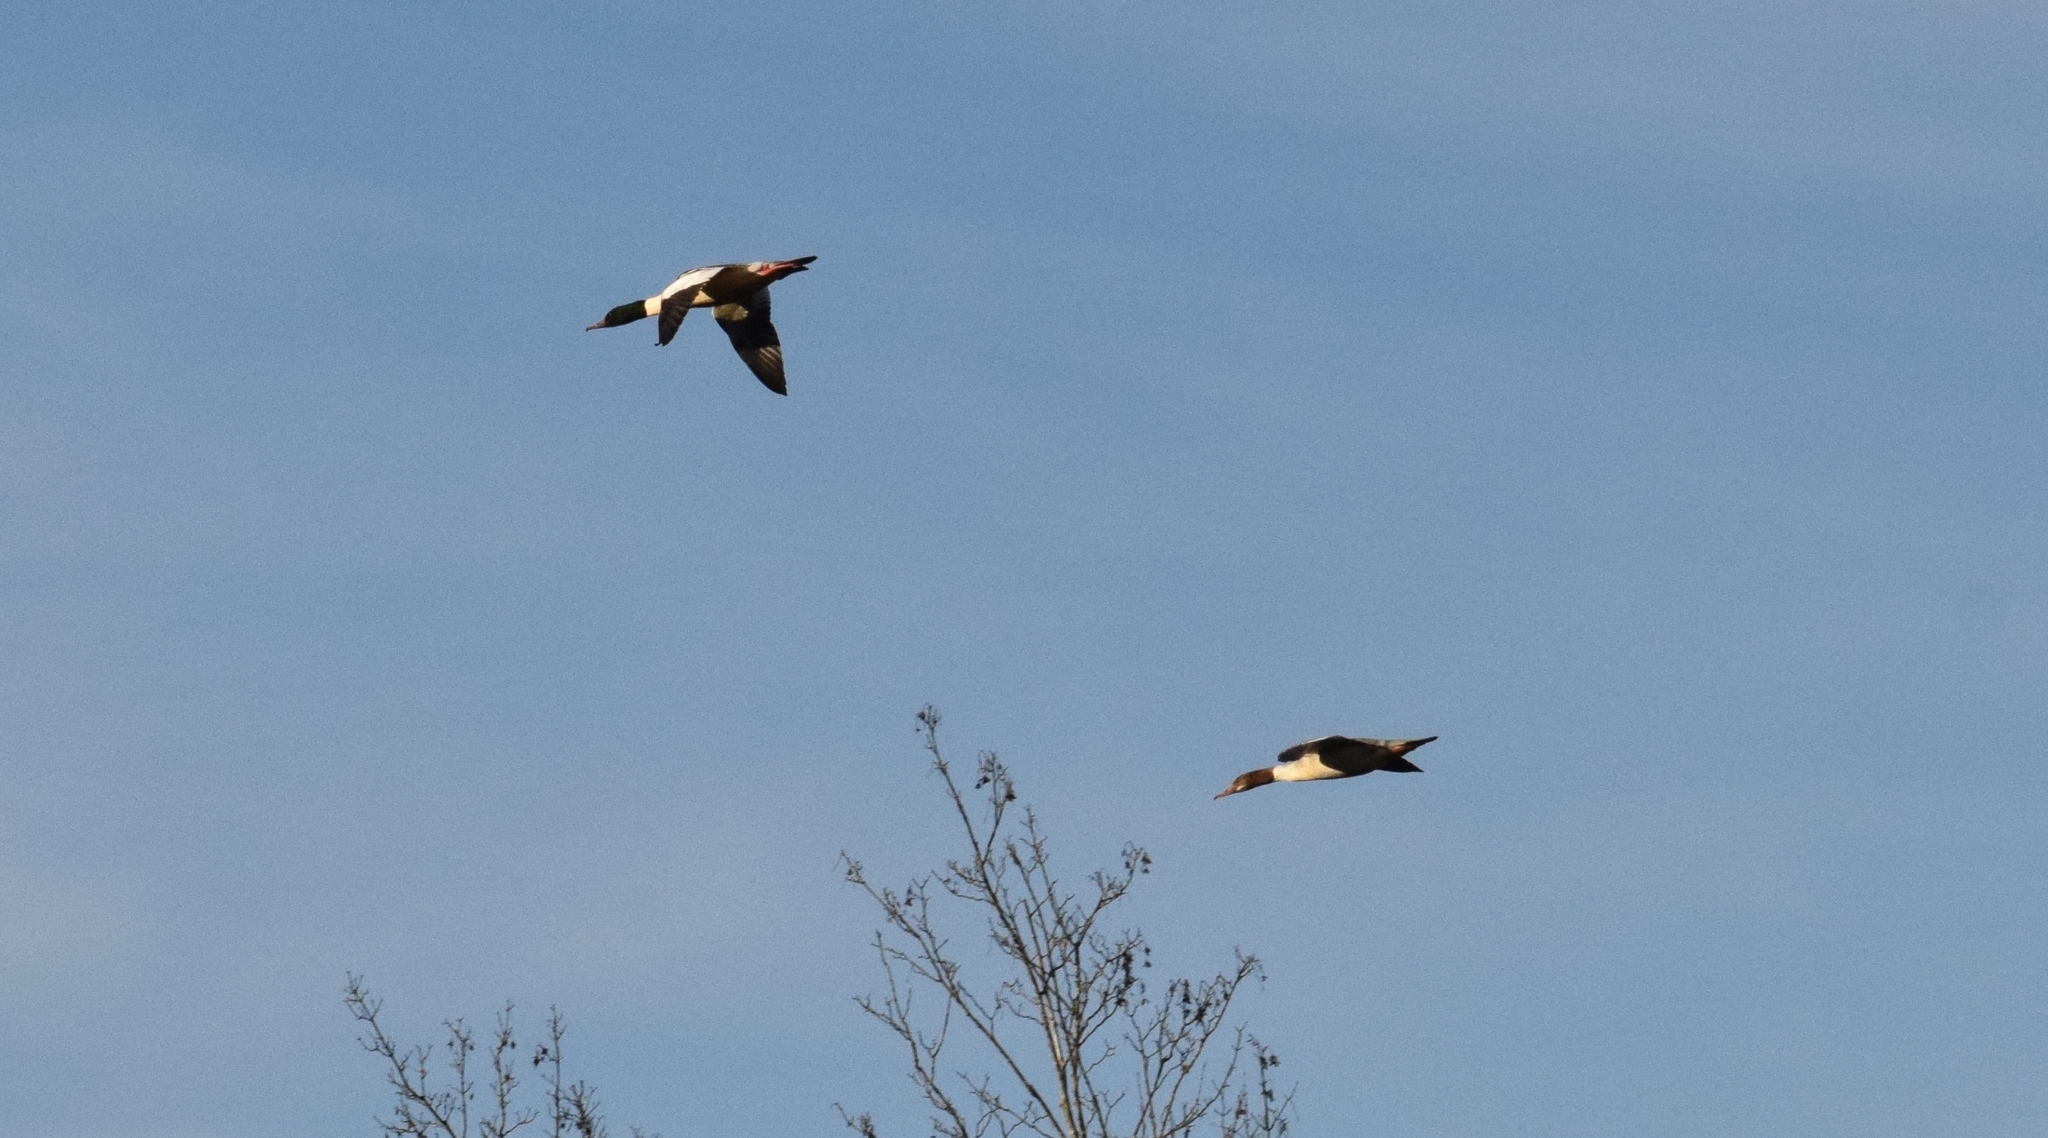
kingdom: Animalia
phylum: Chordata
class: Aves
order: Anseriformes
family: Anatidae
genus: Mergus
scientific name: Mergus merganser
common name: Common merganser
